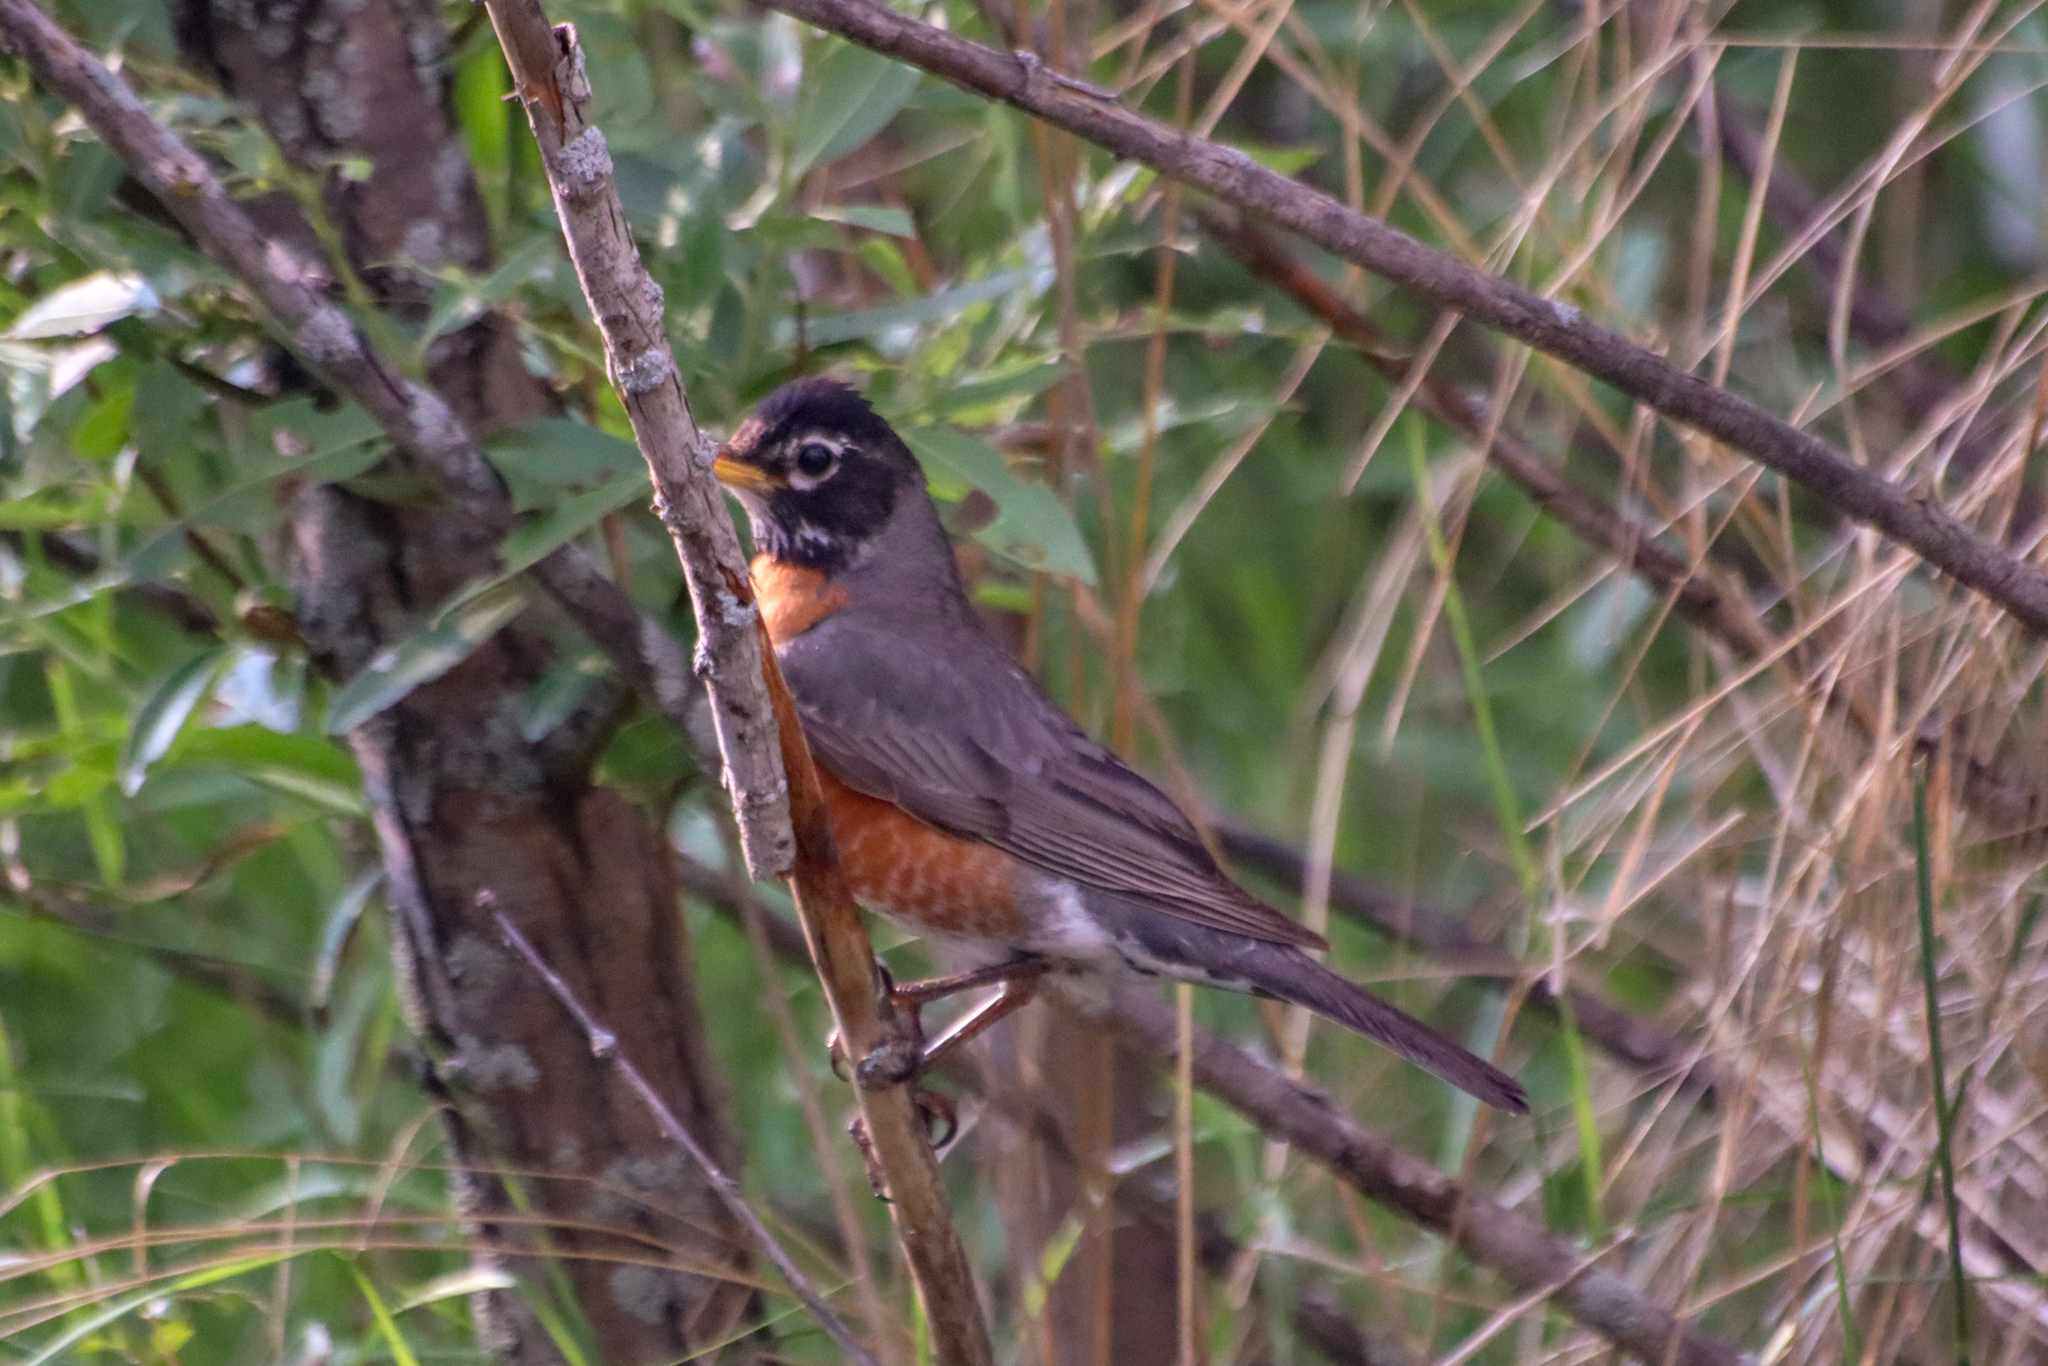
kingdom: Animalia
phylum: Chordata
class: Aves
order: Passeriformes
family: Turdidae
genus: Turdus
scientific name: Turdus migratorius
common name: American robin
